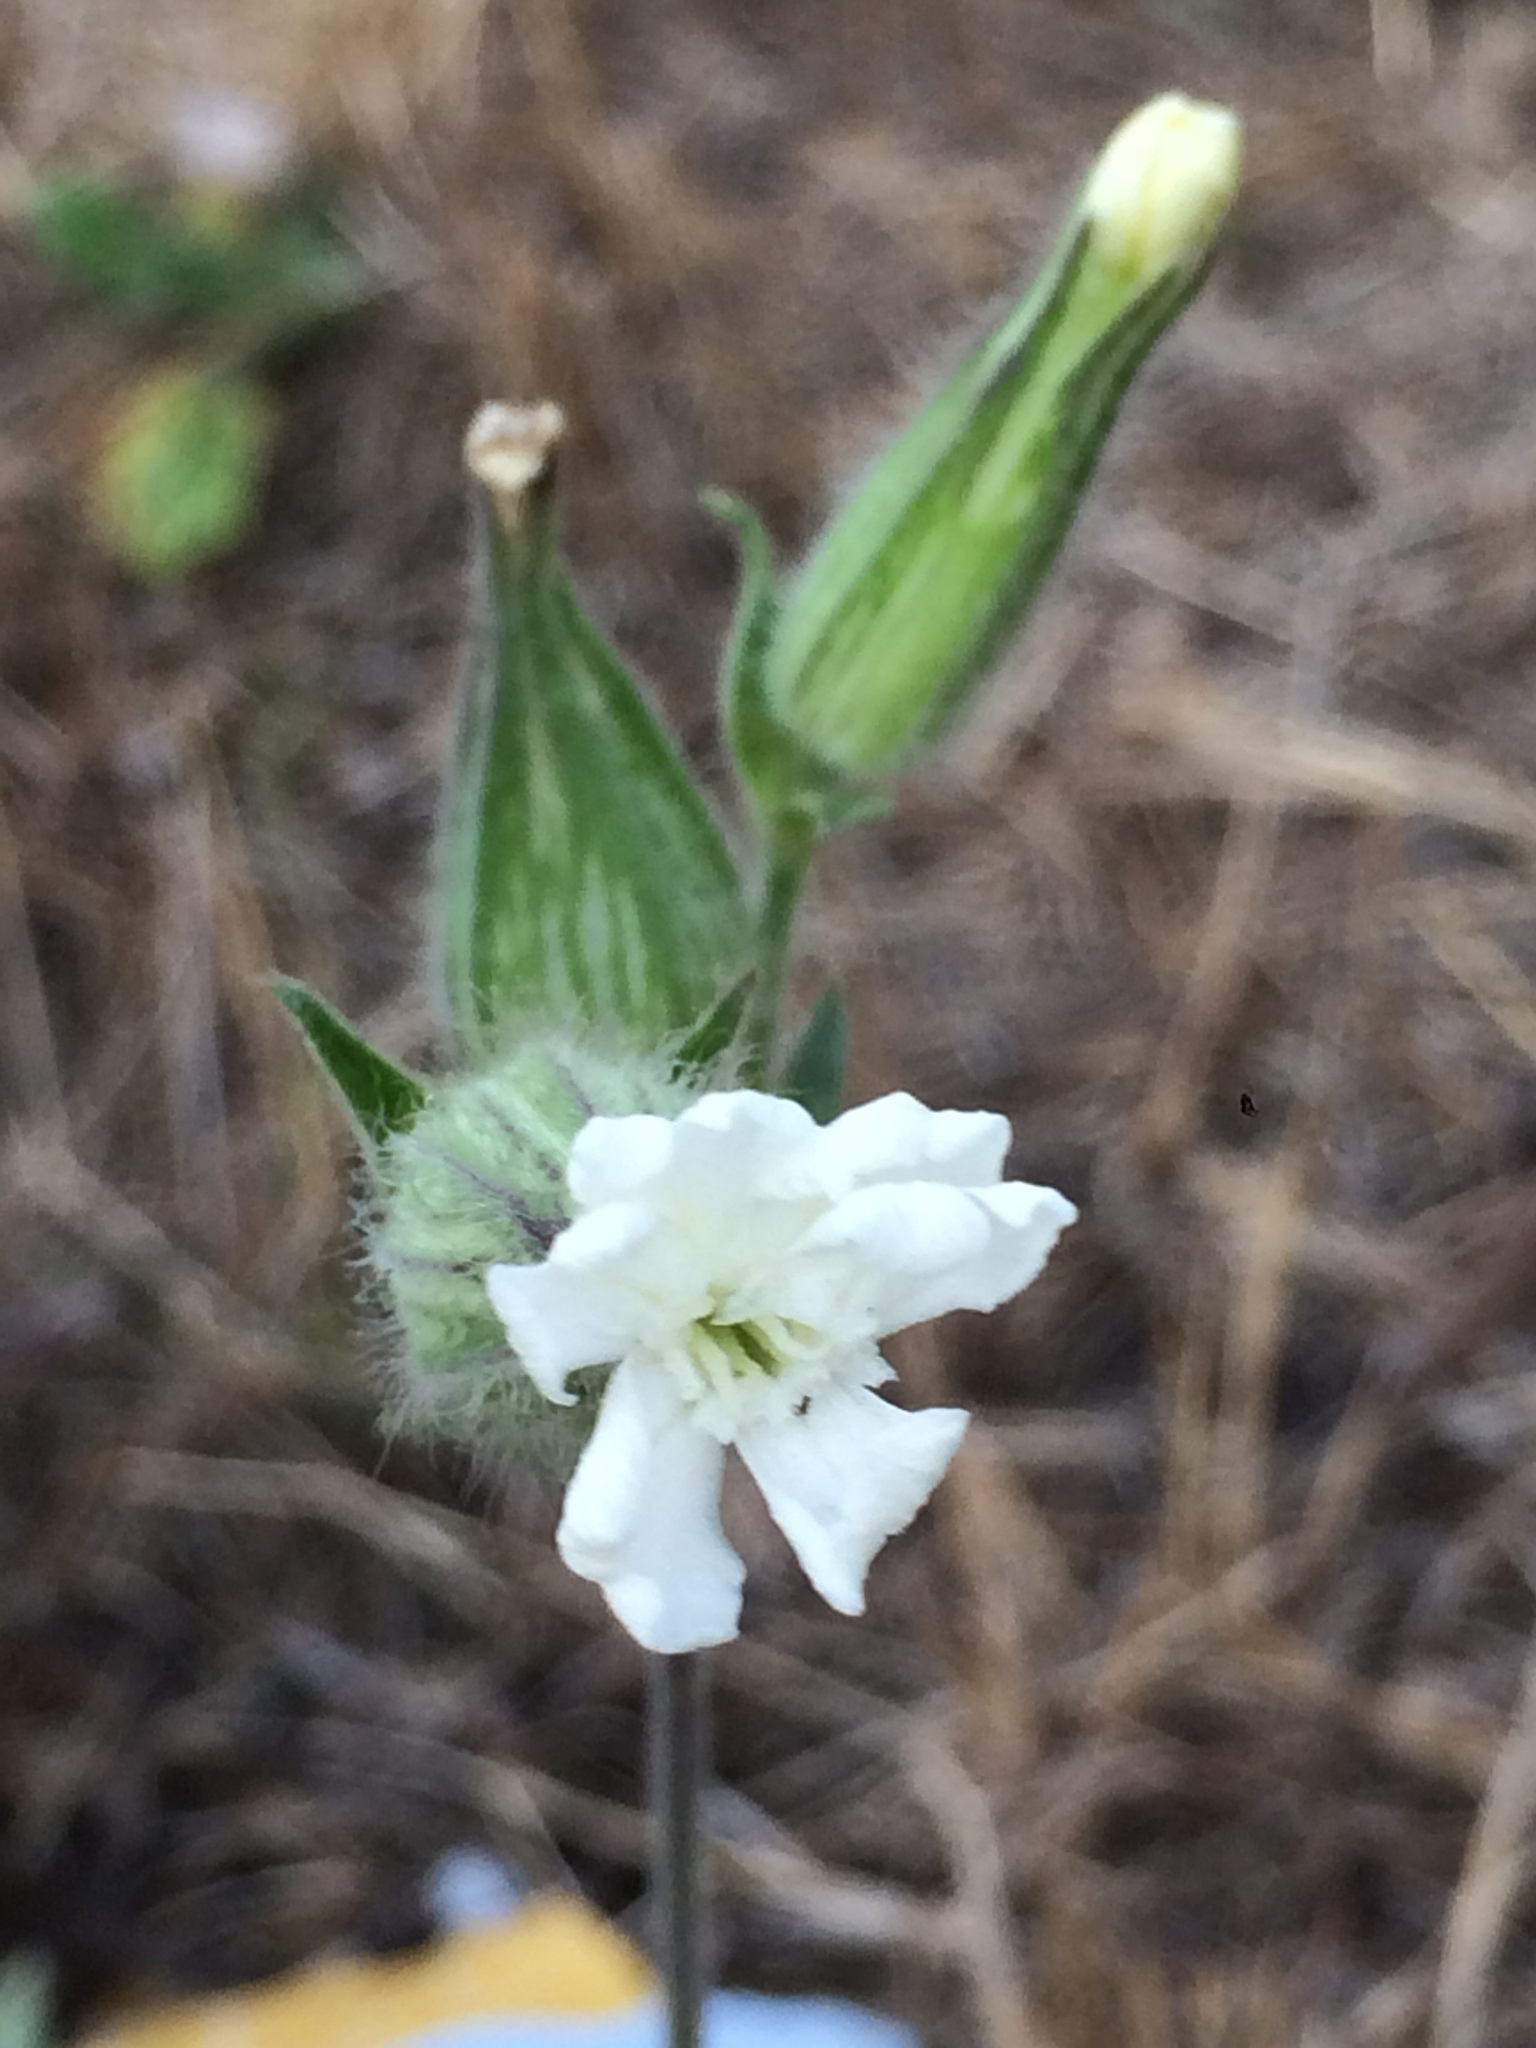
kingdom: Plantae
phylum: Tracheophyta
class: Magnoliopsida
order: Caryophyllales
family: Caryophyllaceae
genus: Silene
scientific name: Silene latifolia
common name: White campion
